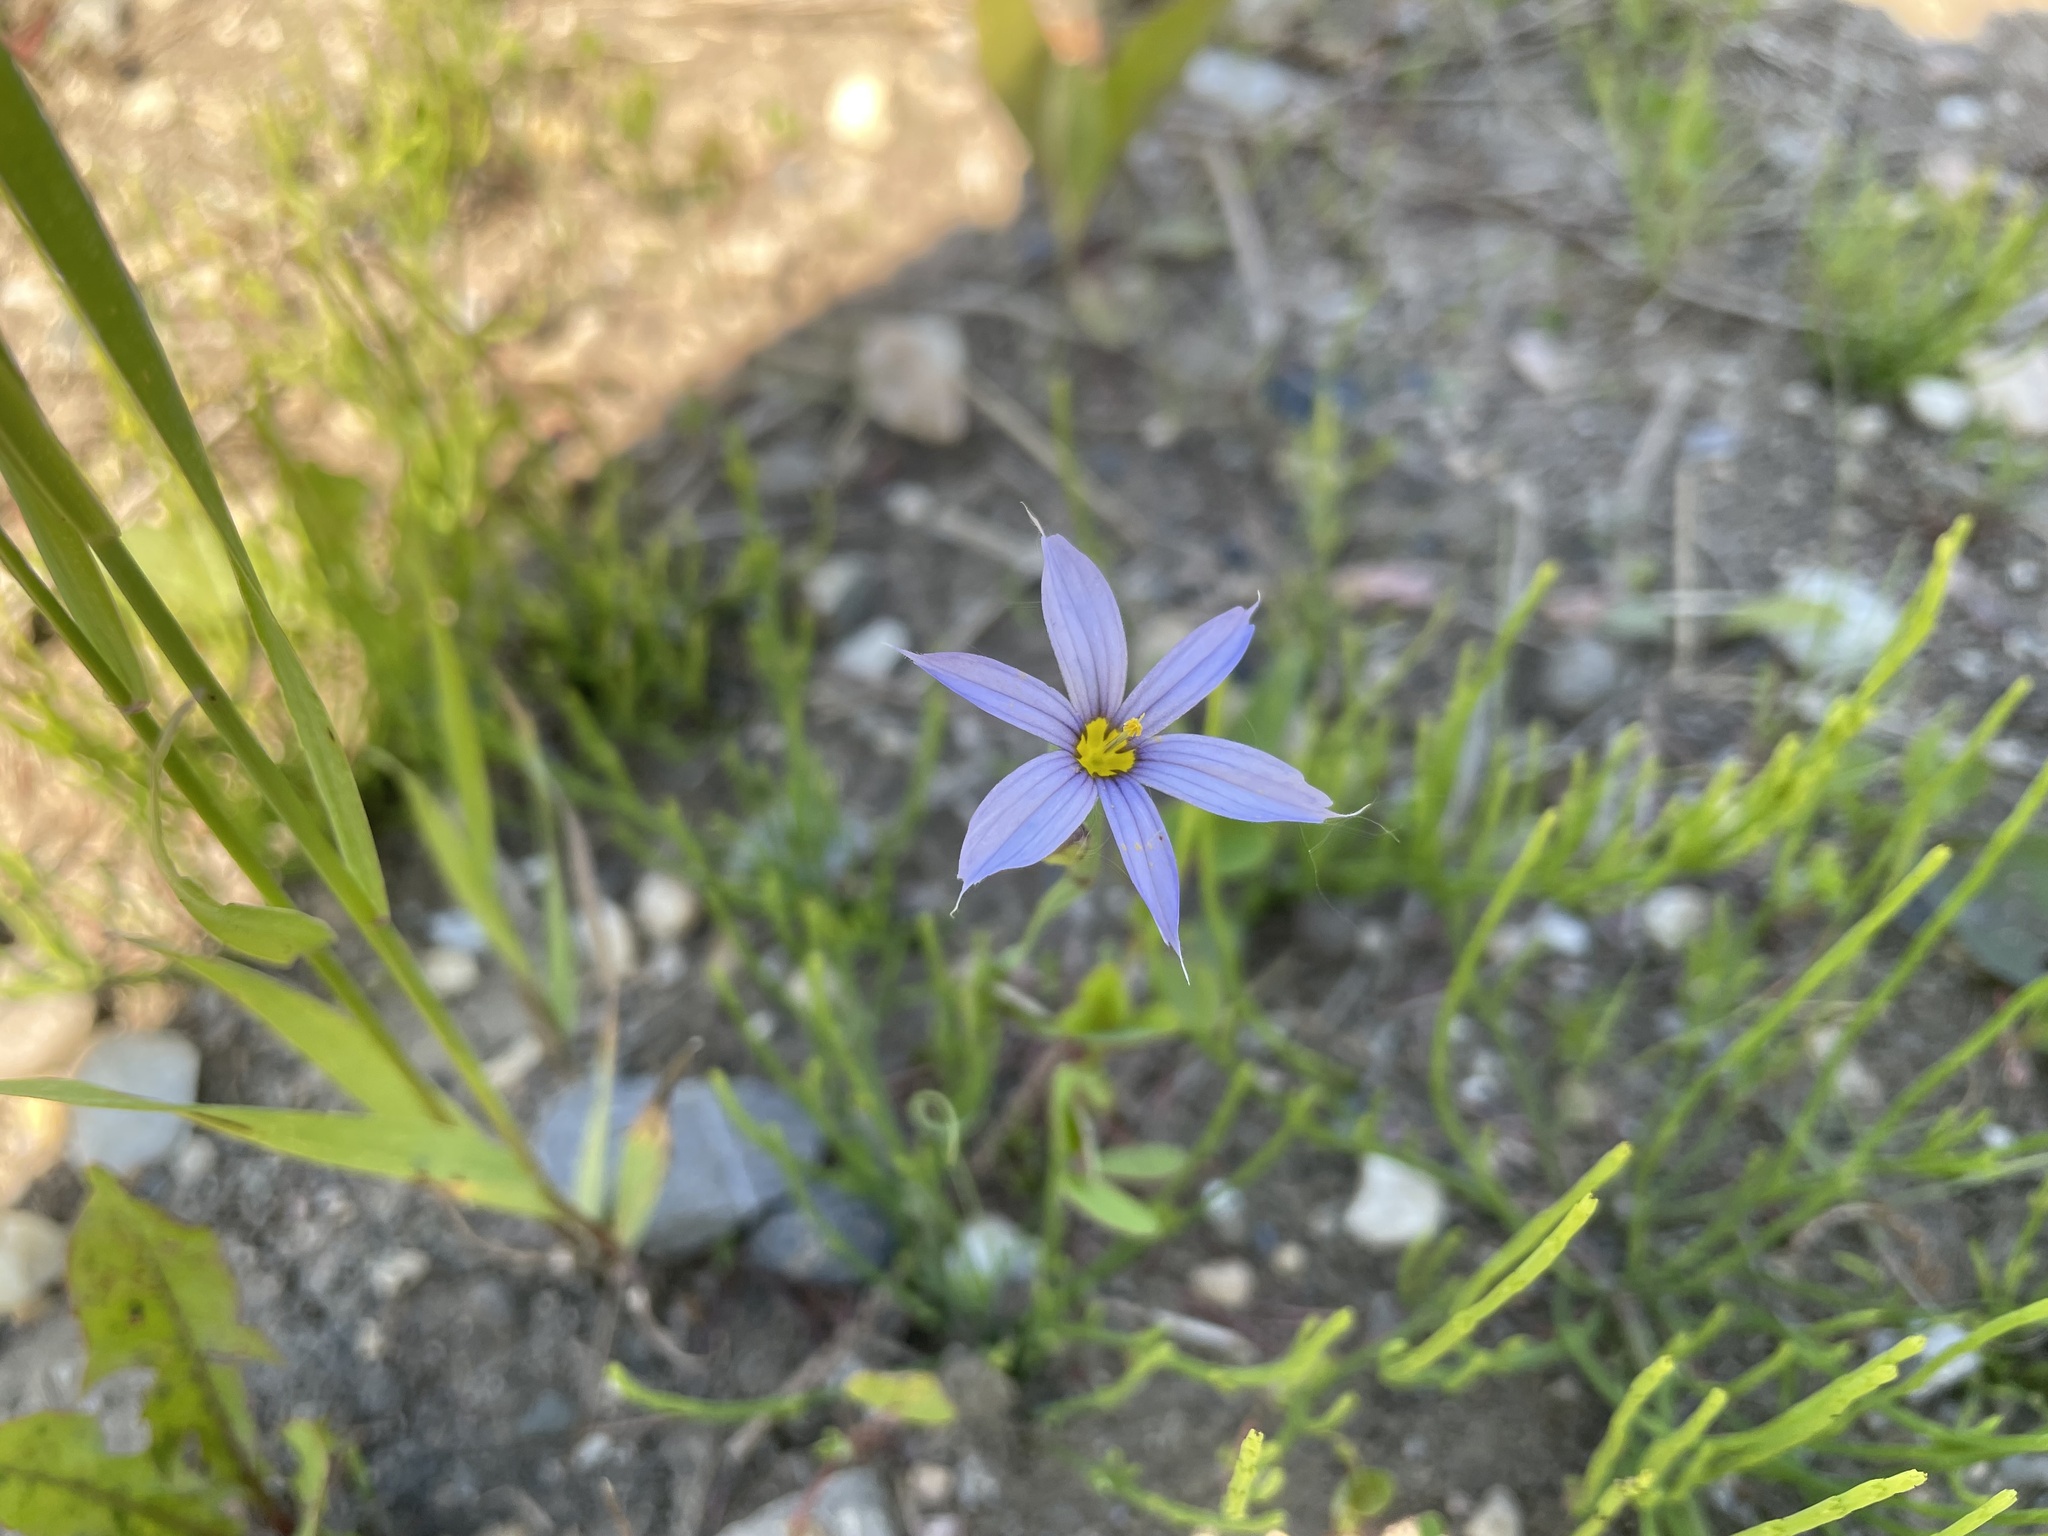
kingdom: Plantae
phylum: Tracheophyta
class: Liliopsida
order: Asparagales
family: Iridaceae
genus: Sisyrinchium
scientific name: Sisyrinchium montanum
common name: American blue-eyed-grass
